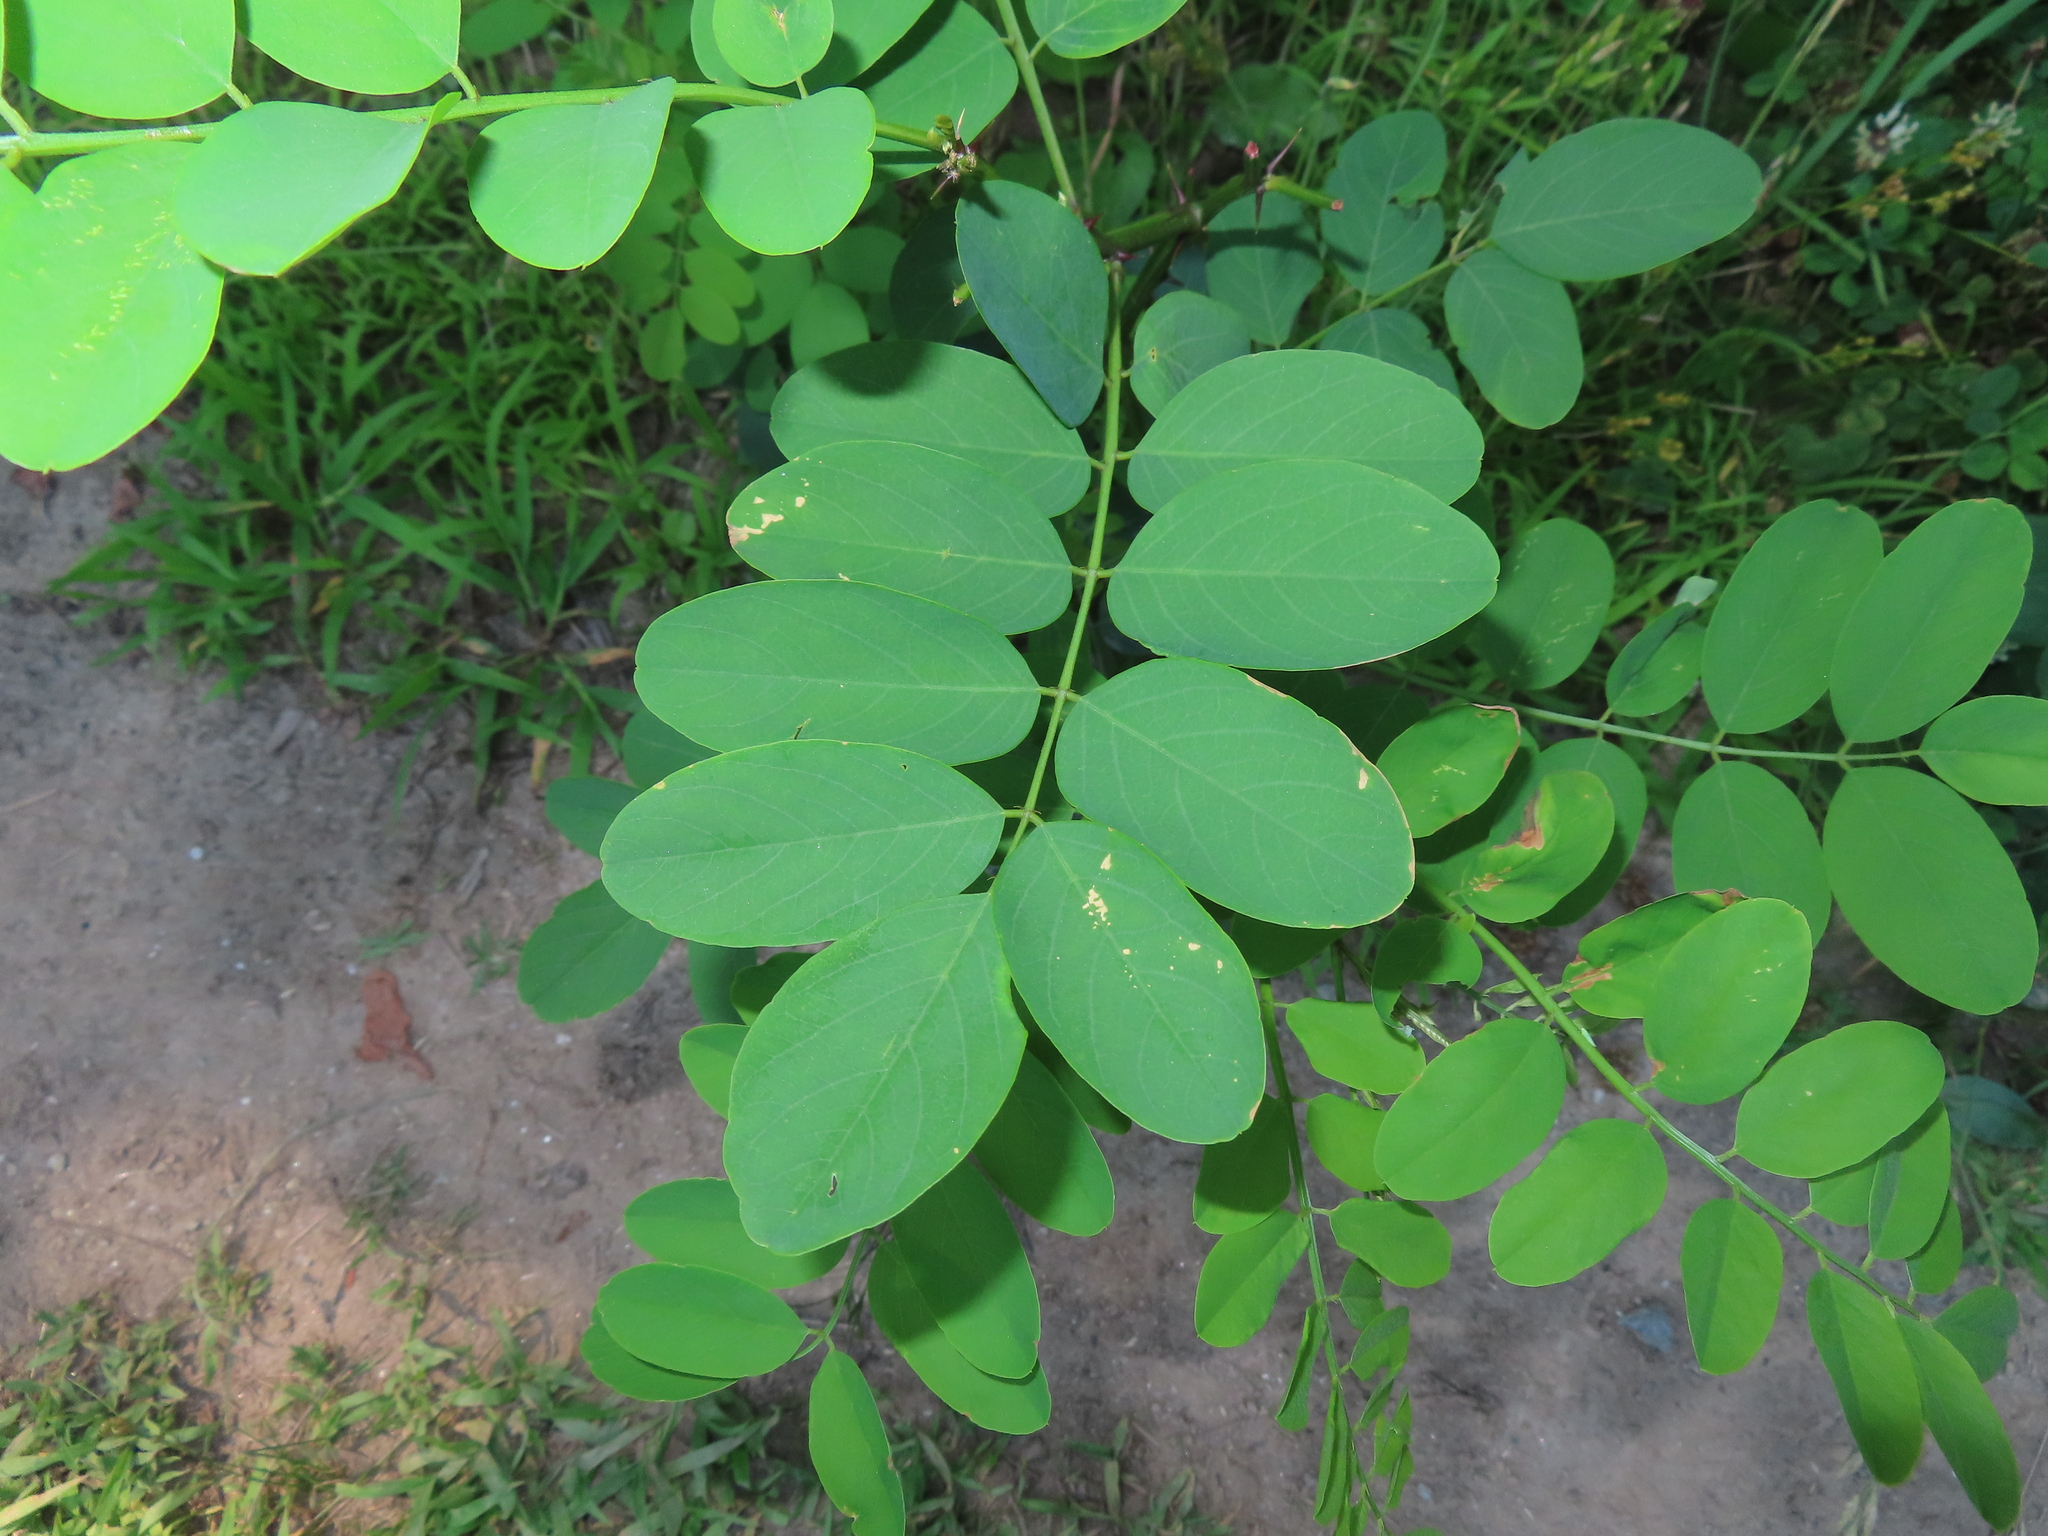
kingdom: Plantae
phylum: Tracheophyta
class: Magnoliopsida
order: Fabales
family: Fabaceae
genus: Robinia
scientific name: Robinia pseudoacacia
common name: Black locust
